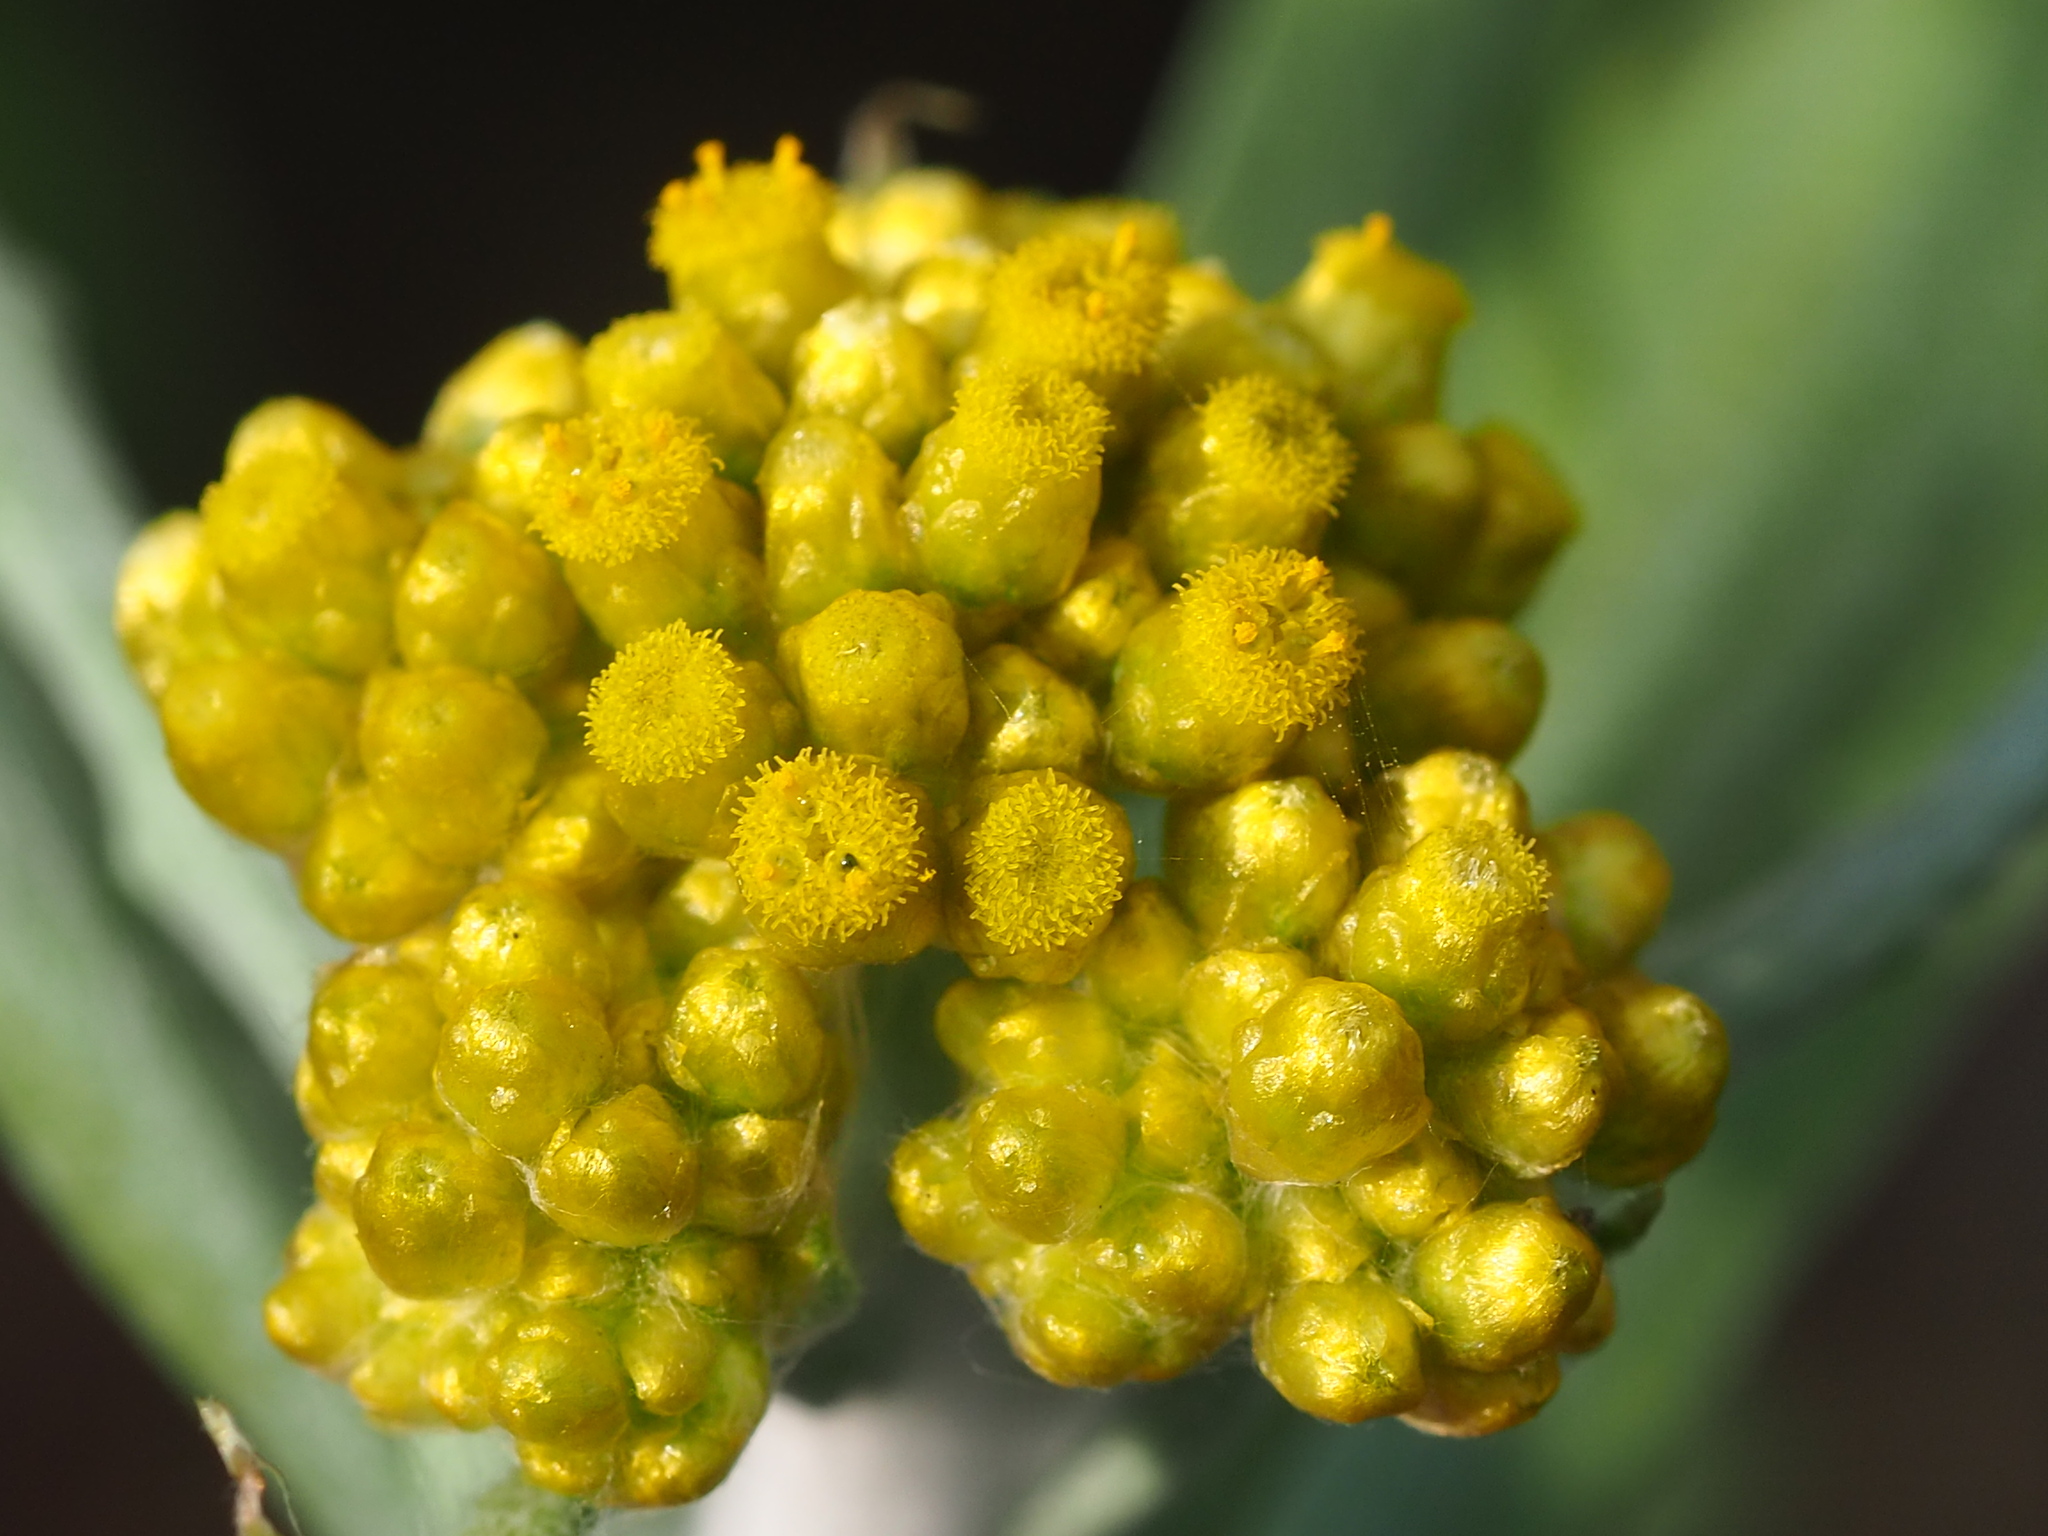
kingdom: Plantae
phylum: Tracheophyta
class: Magnoliopsida
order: Asterales
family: Asteraceae
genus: Pseudognaphalium
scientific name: Pseudognaphalium affine
